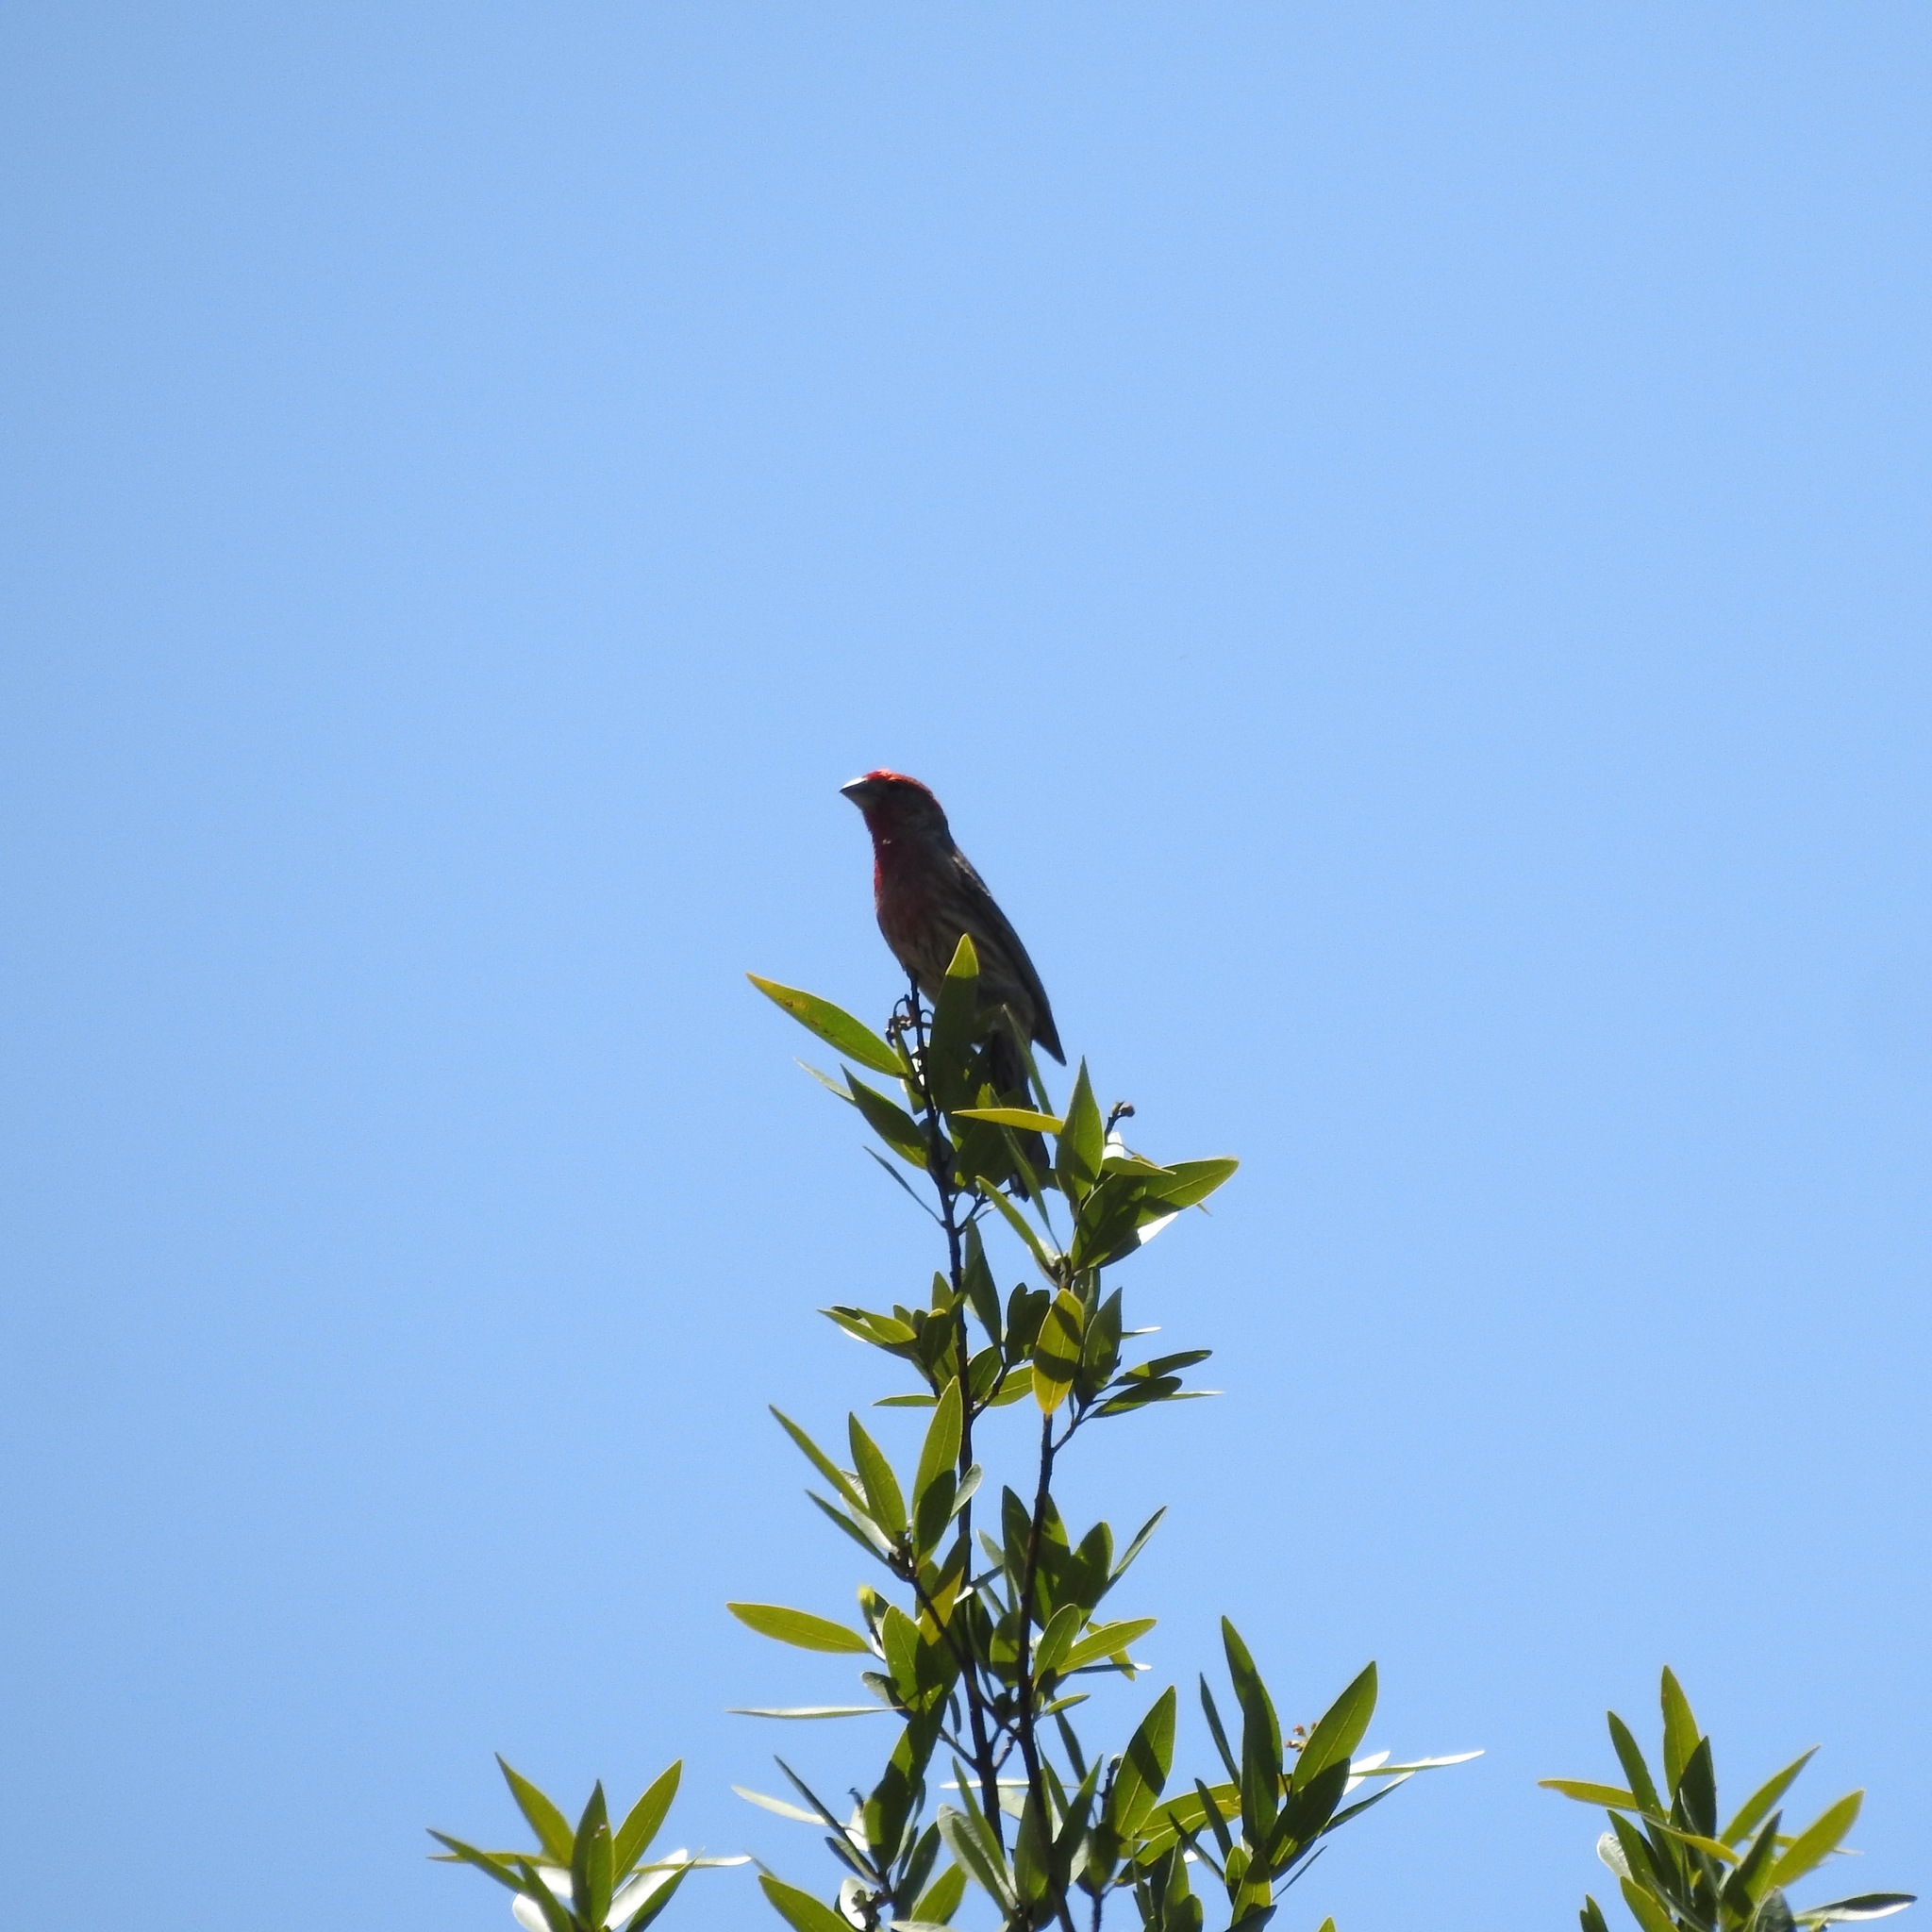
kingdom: Animalia
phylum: Chordata
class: Aves
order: Passeriformes
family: Fringillidae
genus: Haemorhous
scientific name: Haemorhous mexicanus
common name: House finch
